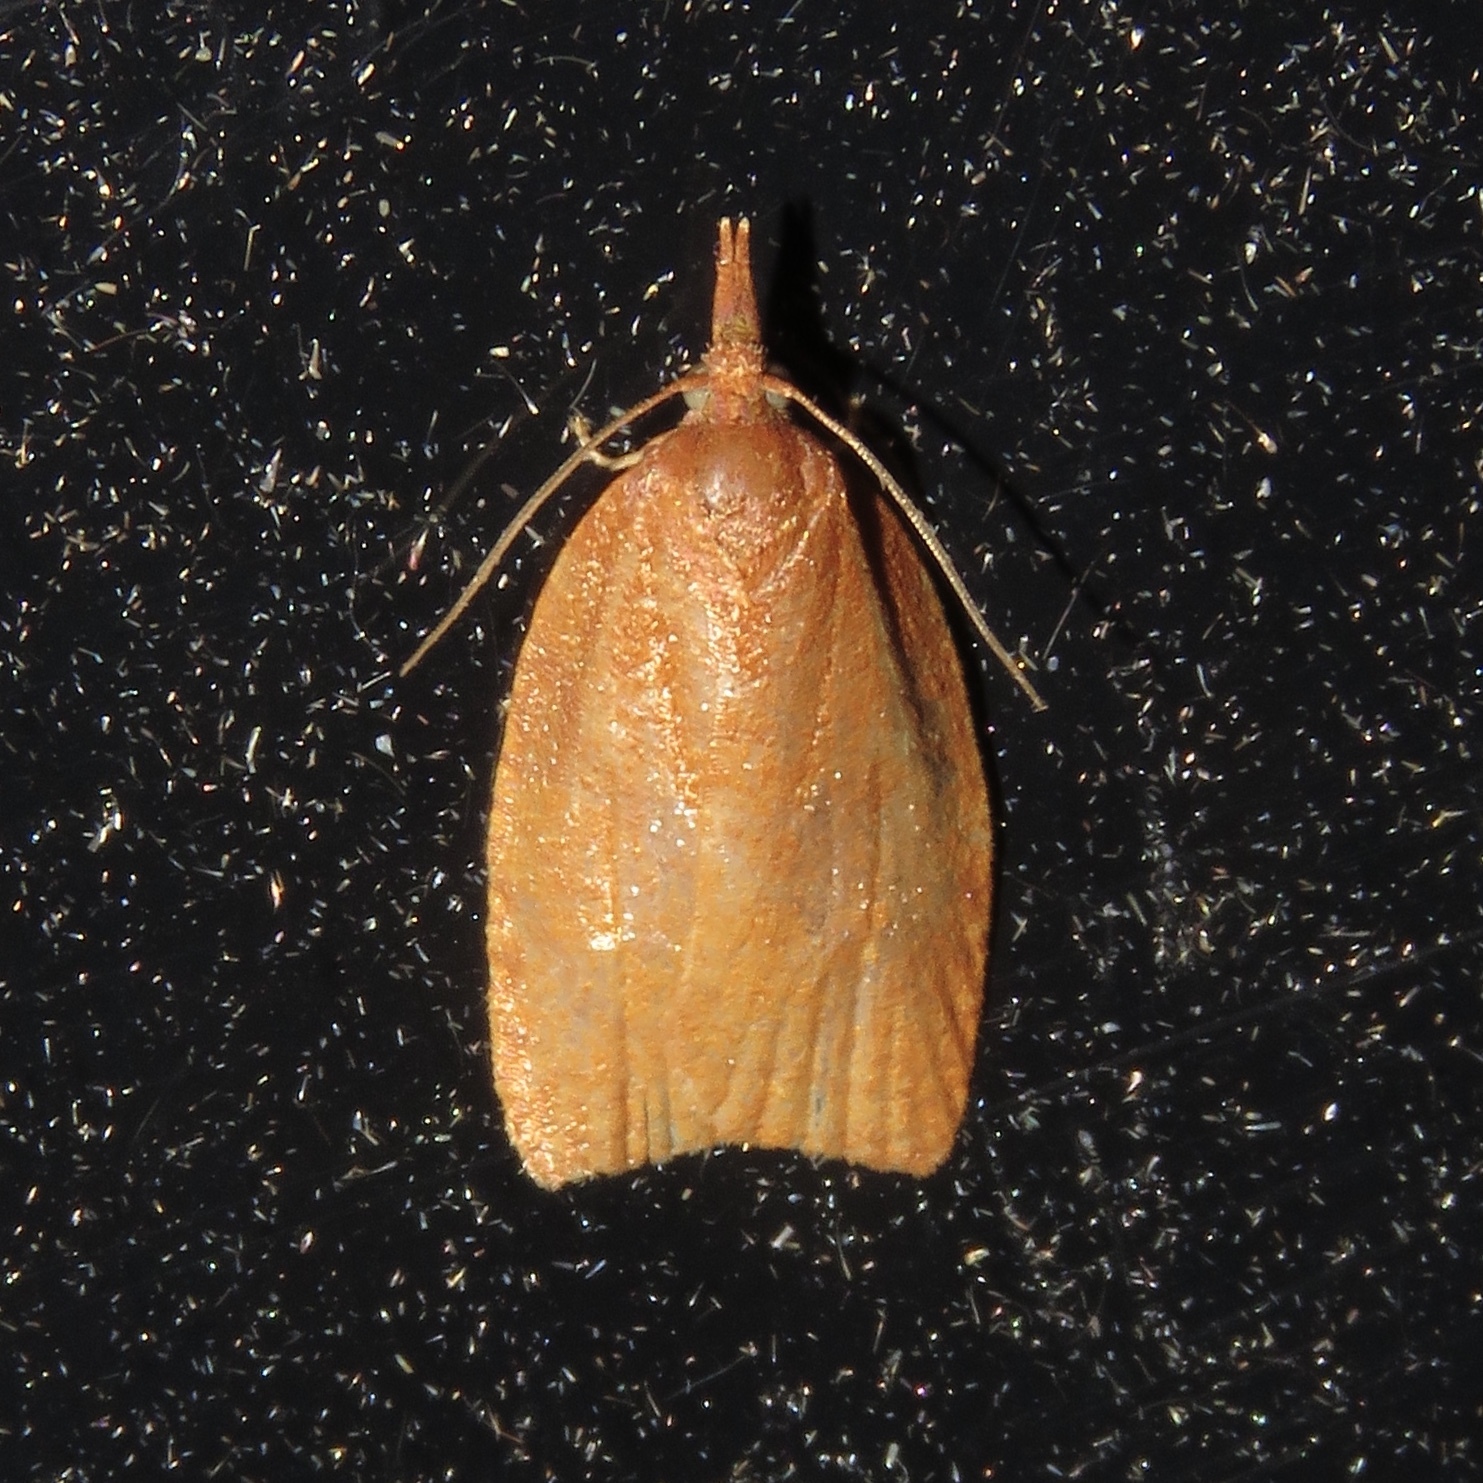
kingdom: Animalia
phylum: Arthropoda
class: Insecta
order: Lepidoptera
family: Tortricidae
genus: Cenopis
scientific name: Cenopis directana
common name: Chokecherry leafroller moth
